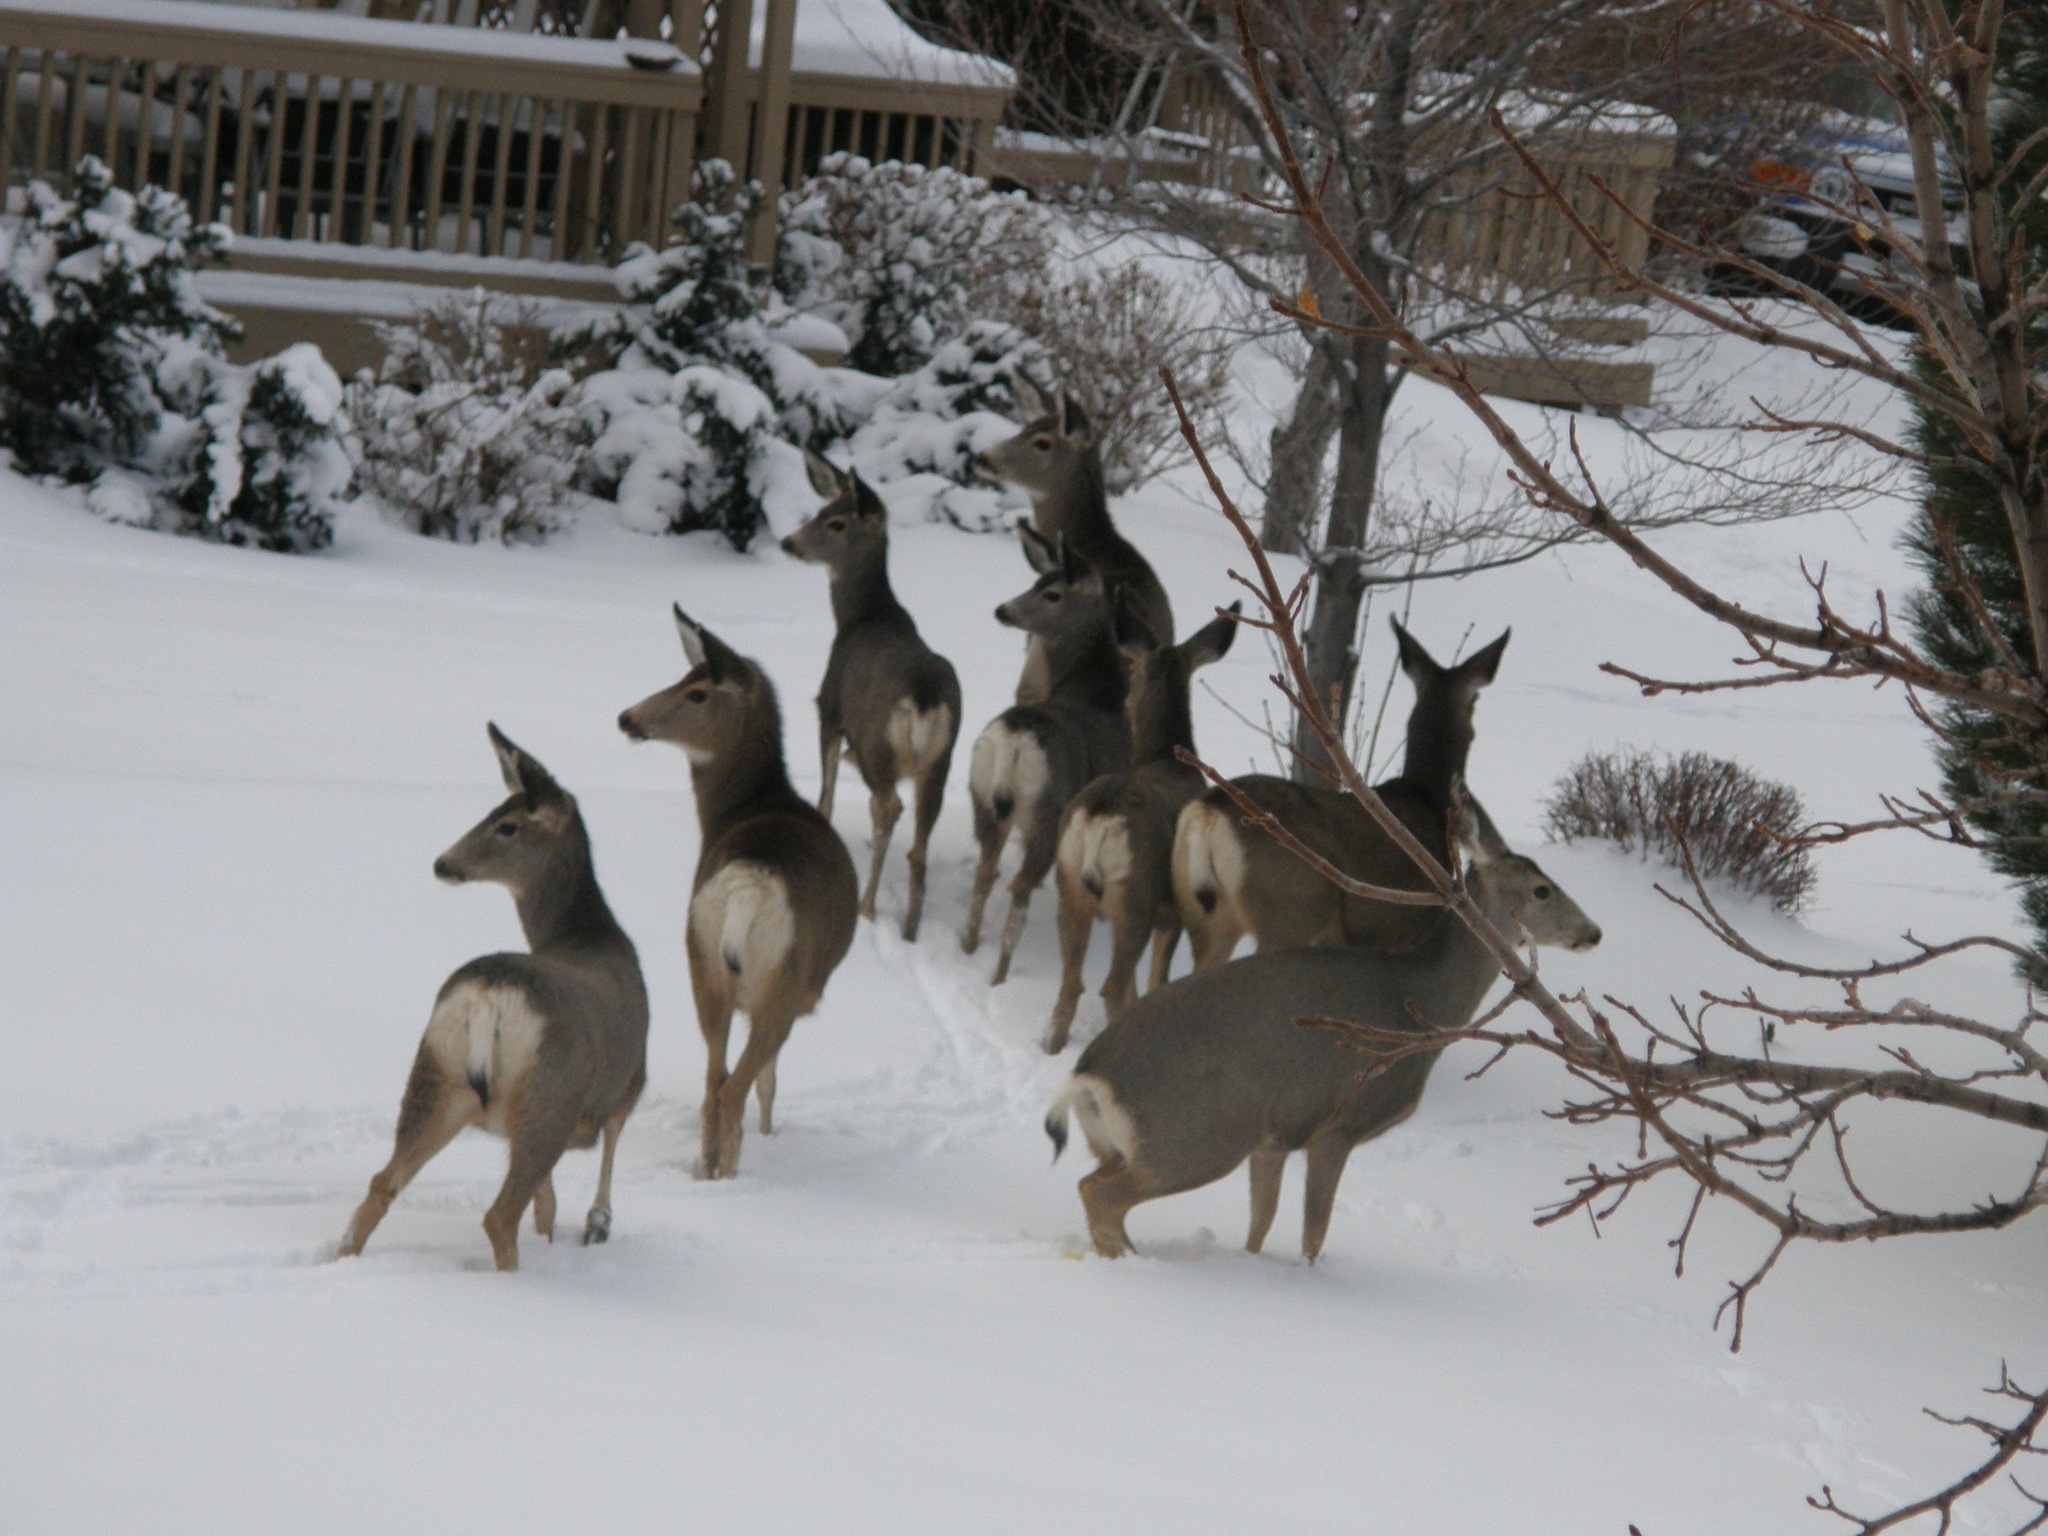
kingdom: Animalia
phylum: Chordata
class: Mammalia
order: Artiodactyla
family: Cervidae
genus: Odocoileus
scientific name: Odocoileus hemionus
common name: Mule deer
